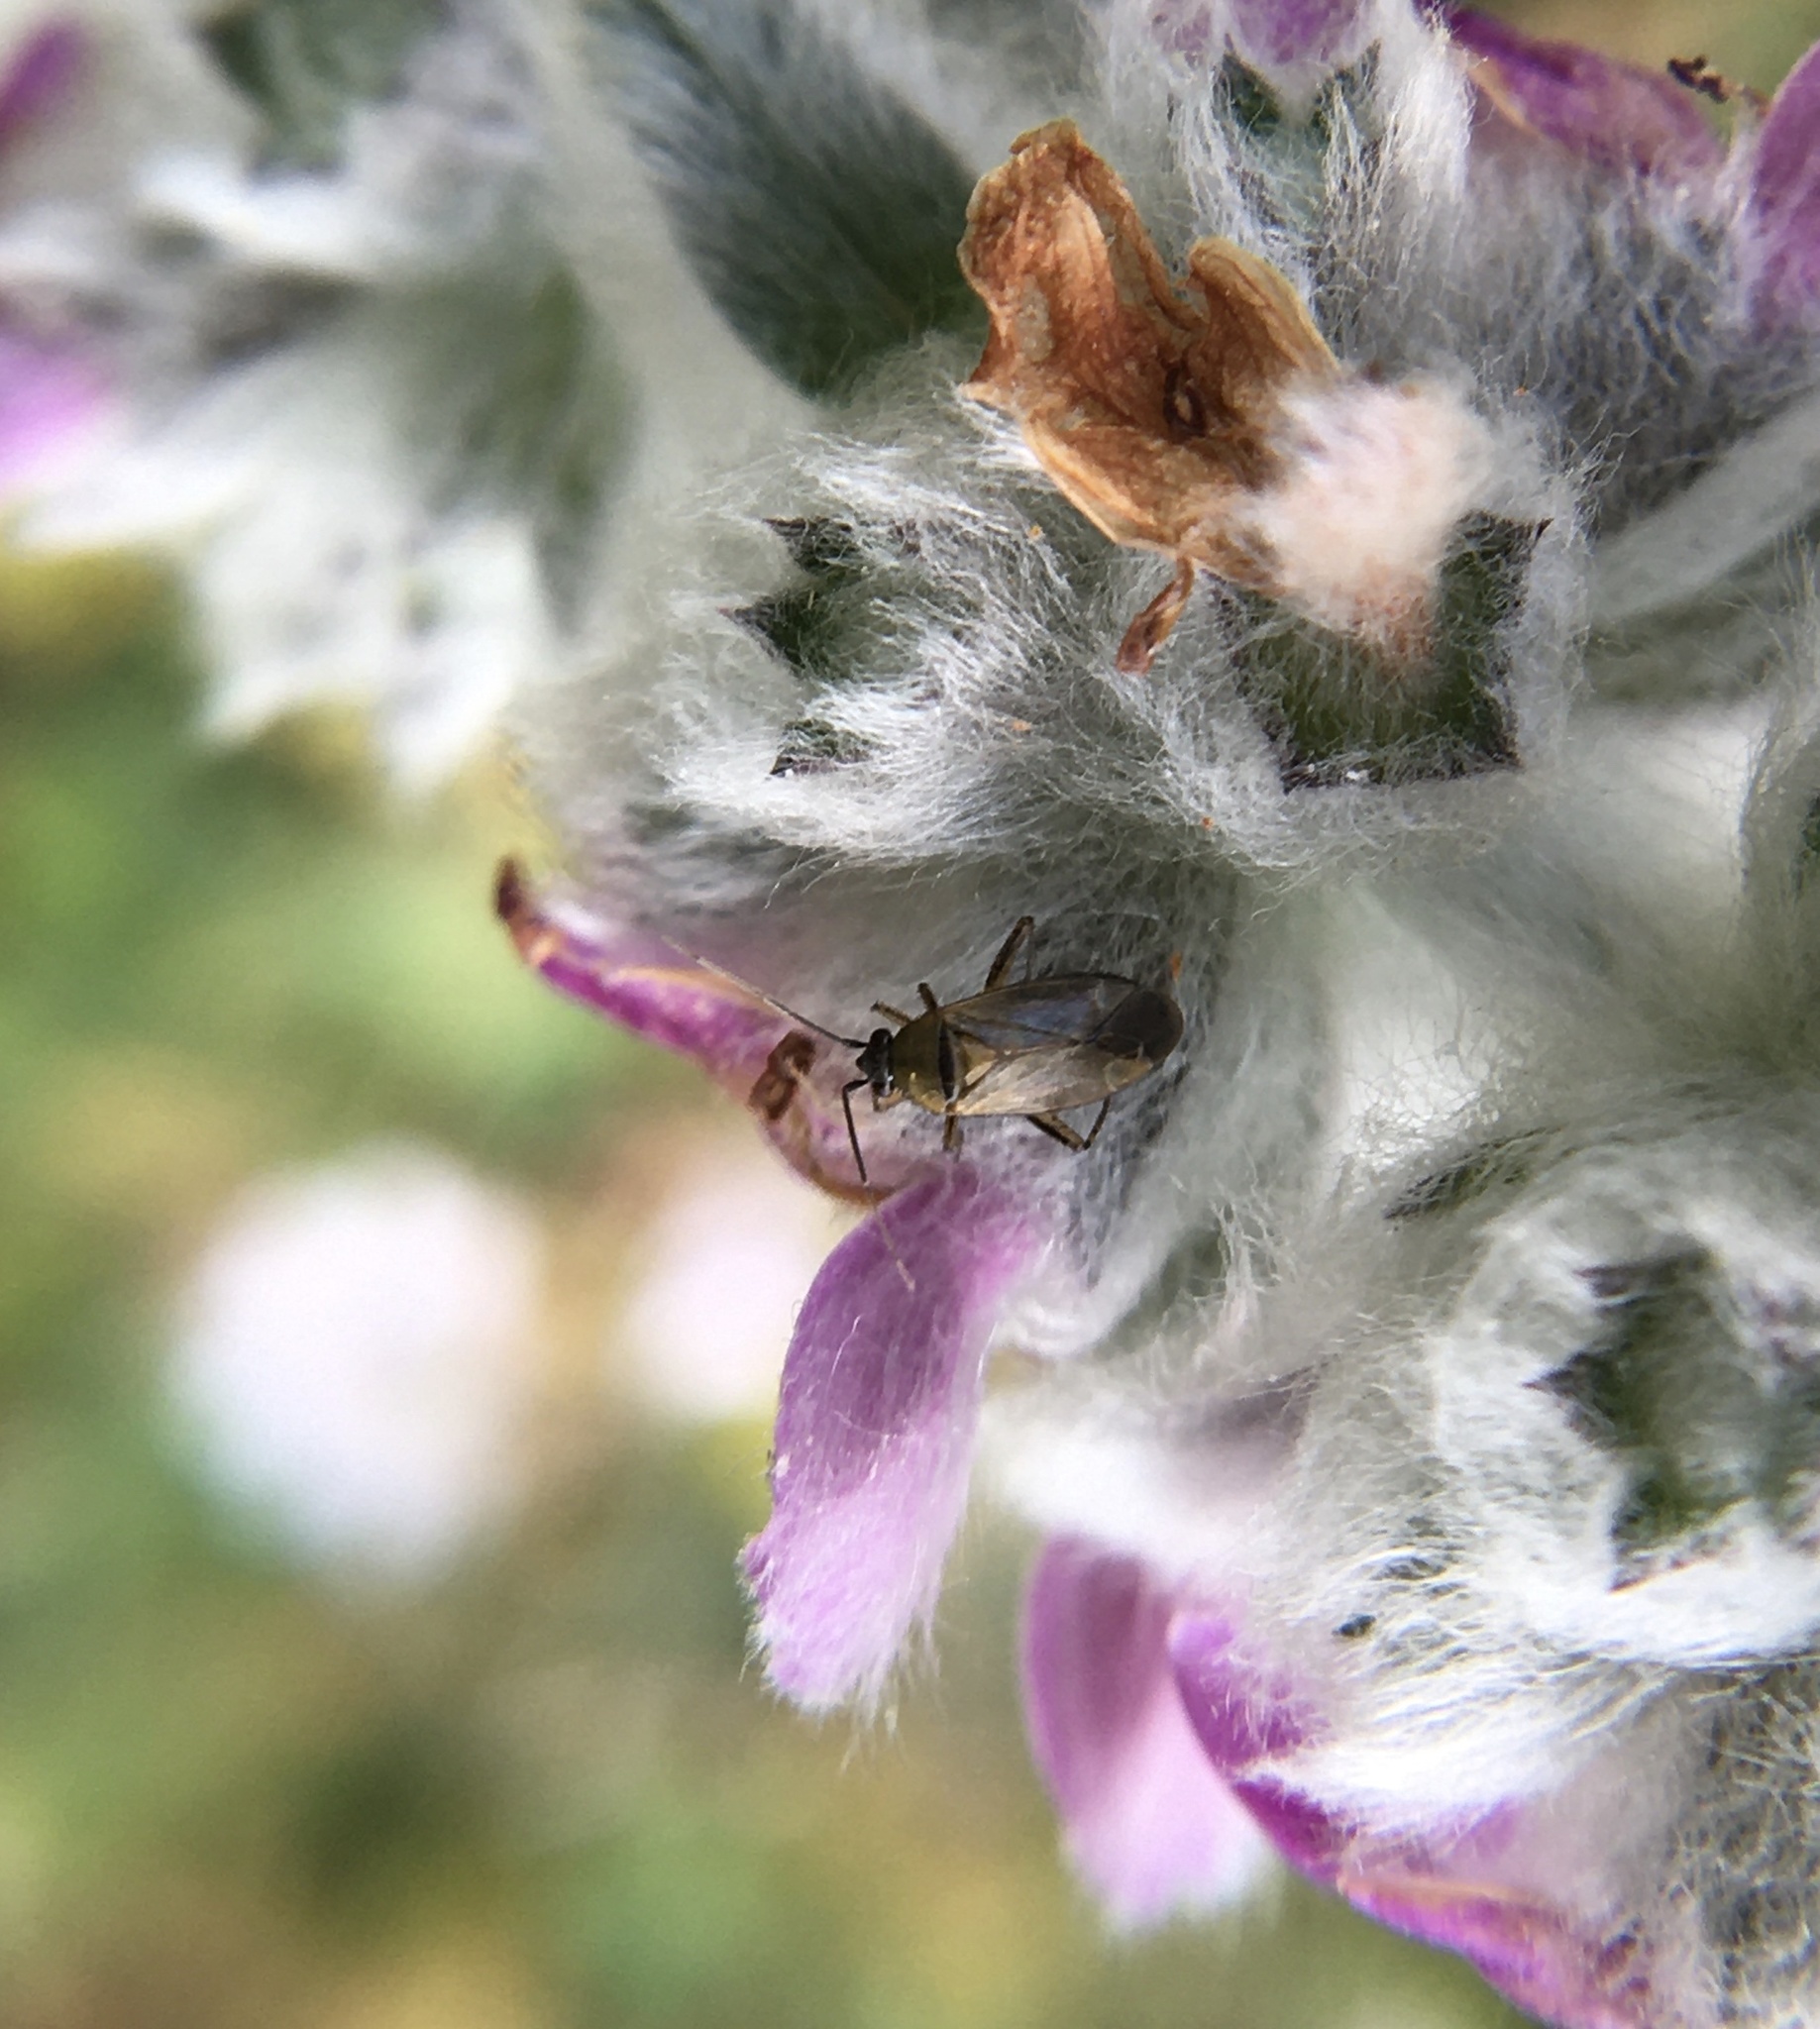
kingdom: Animalia
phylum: Arthropoda
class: Insecta
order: Hemiptera
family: Miridae
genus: Plagiognathus
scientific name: Plagiognathus arbustorum
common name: Plant bug
